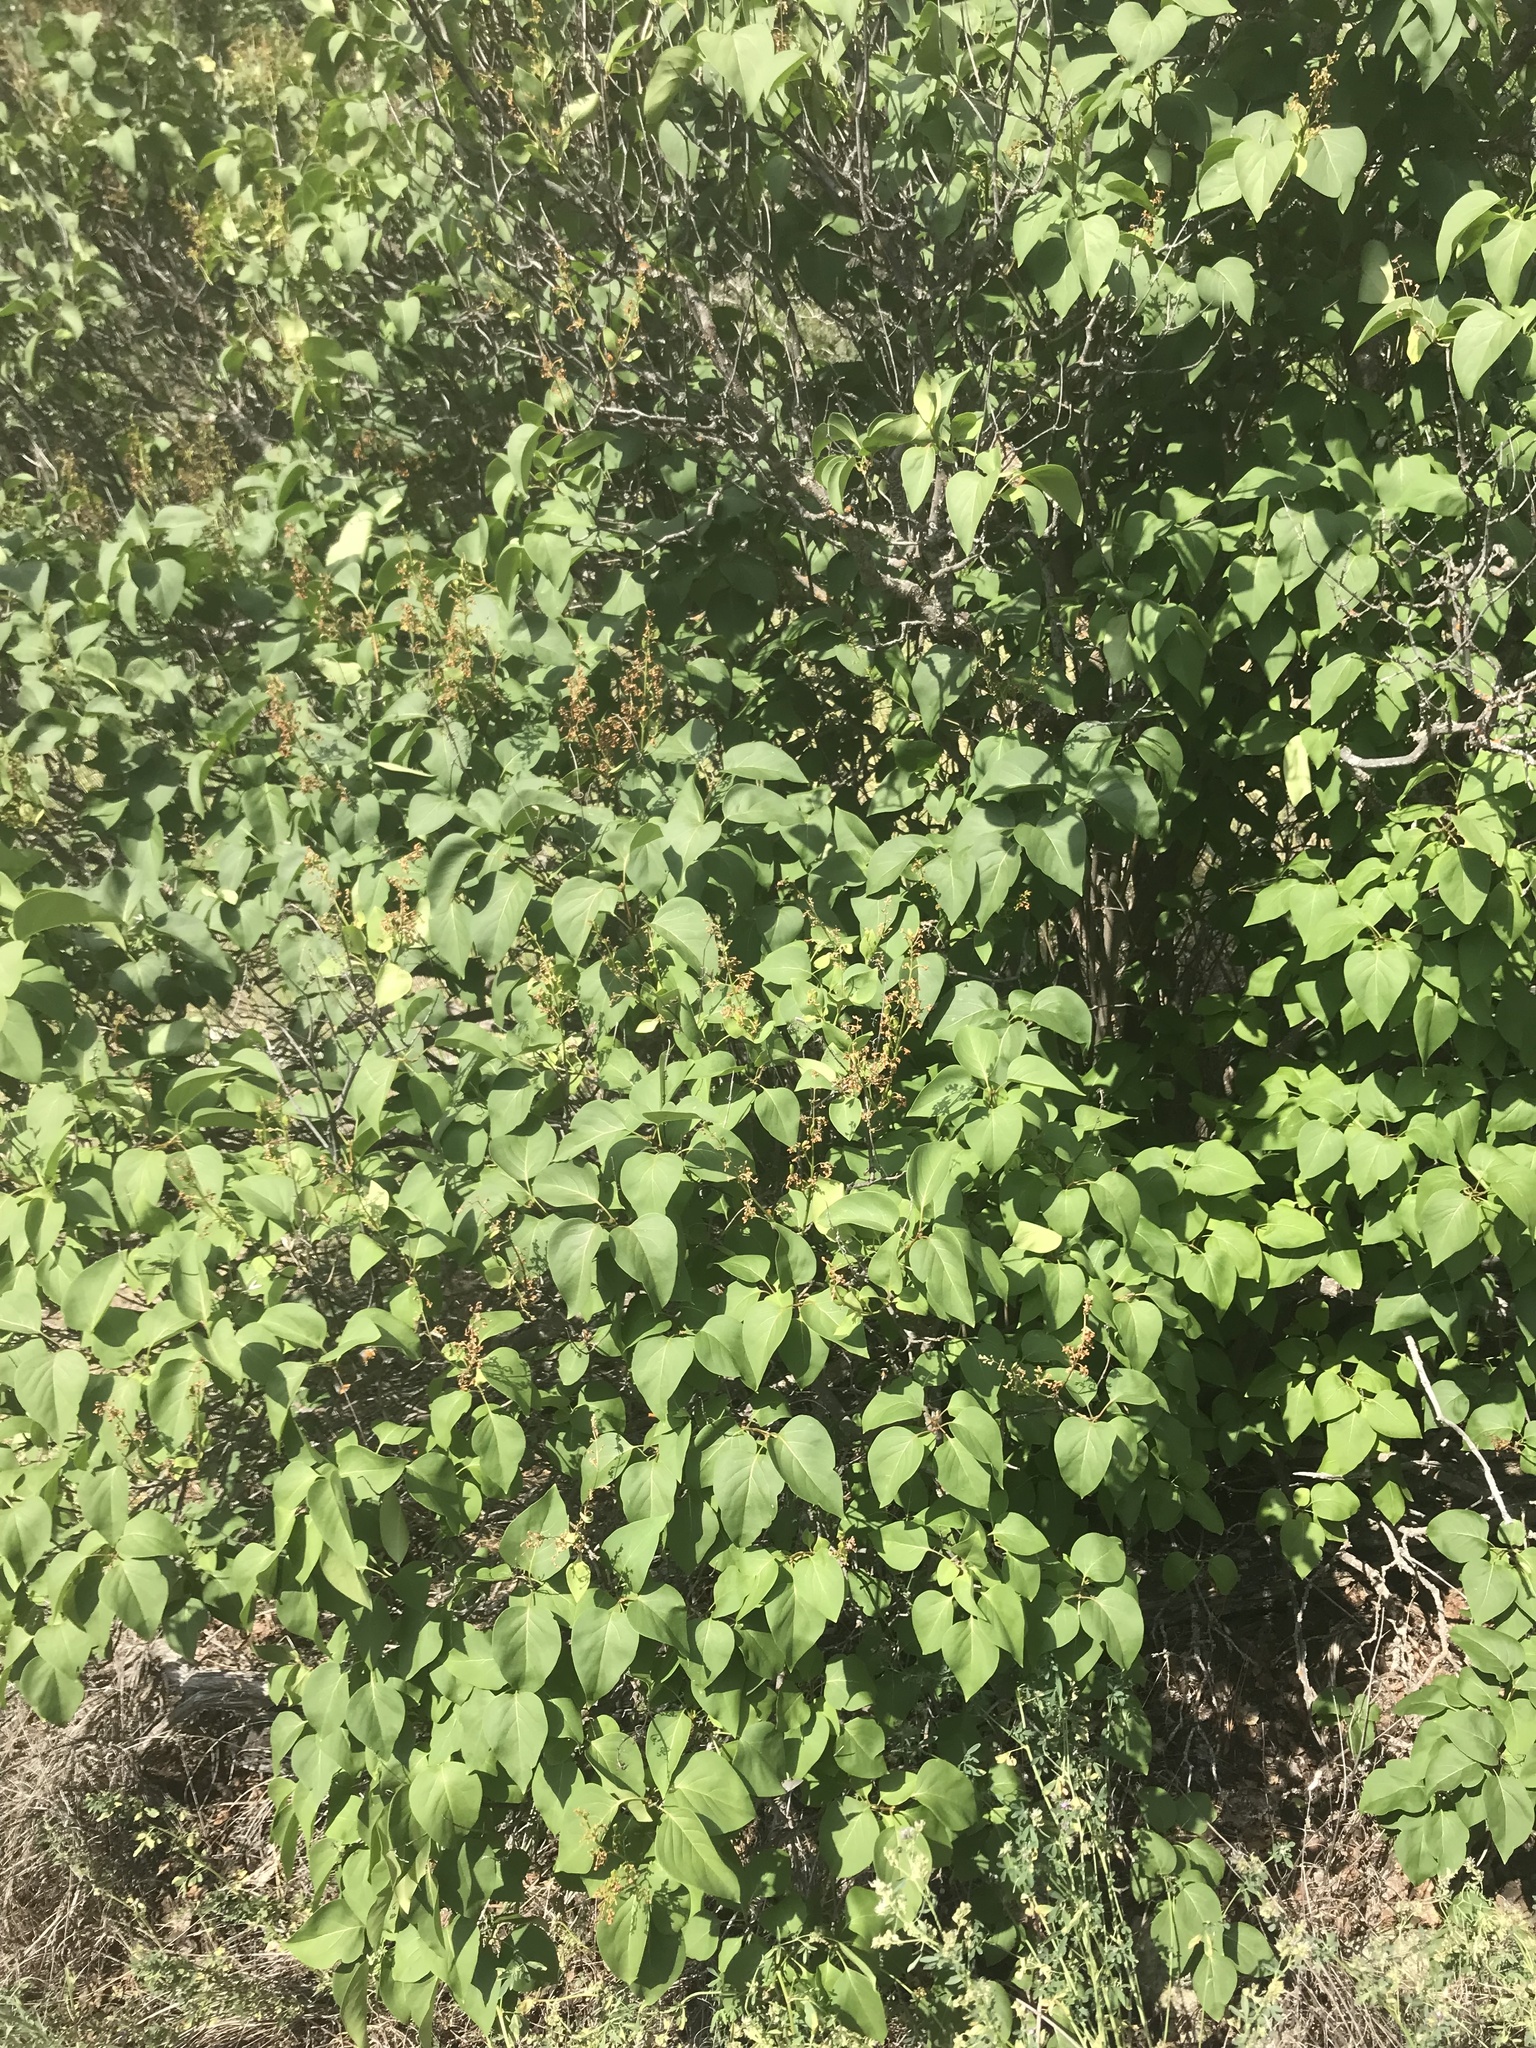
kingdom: Plantae
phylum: Tracheophyta
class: Magnoliopsida
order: Lamiales
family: Oleaceae
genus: Syringa
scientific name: Syringa vulgaris
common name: Common lilac
